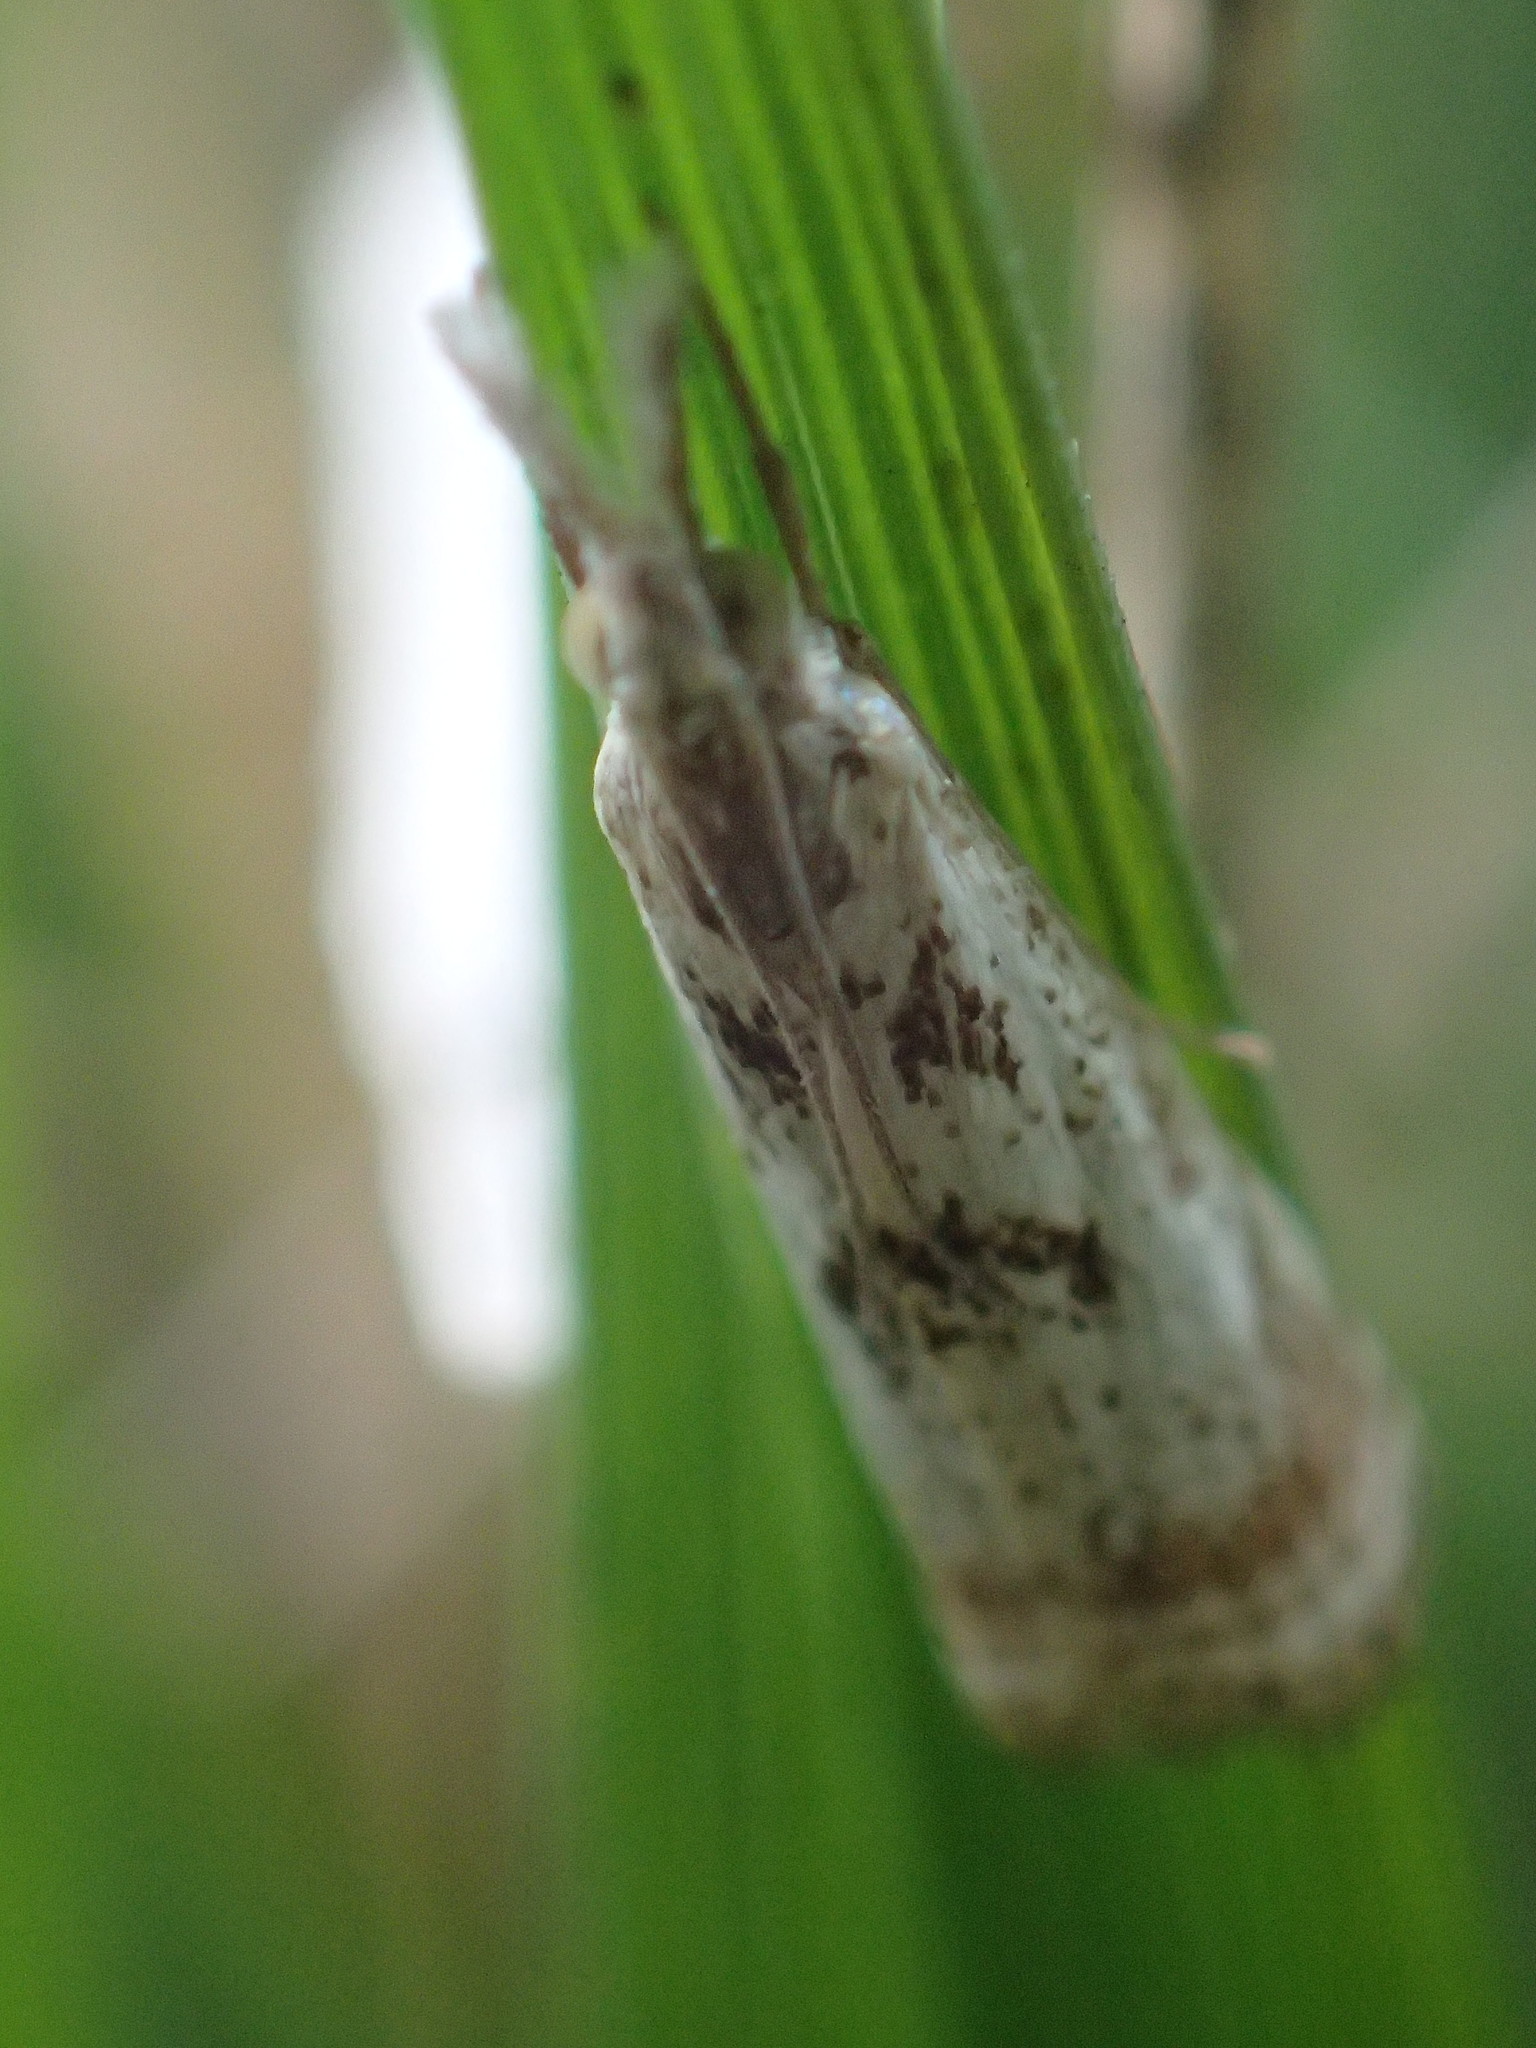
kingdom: Animalia
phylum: Arthropoda
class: Insecta
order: Lepidoptera
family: Crambidae
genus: Microcrambus
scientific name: Microcrambus elegans
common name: Elegant grass-veneer
